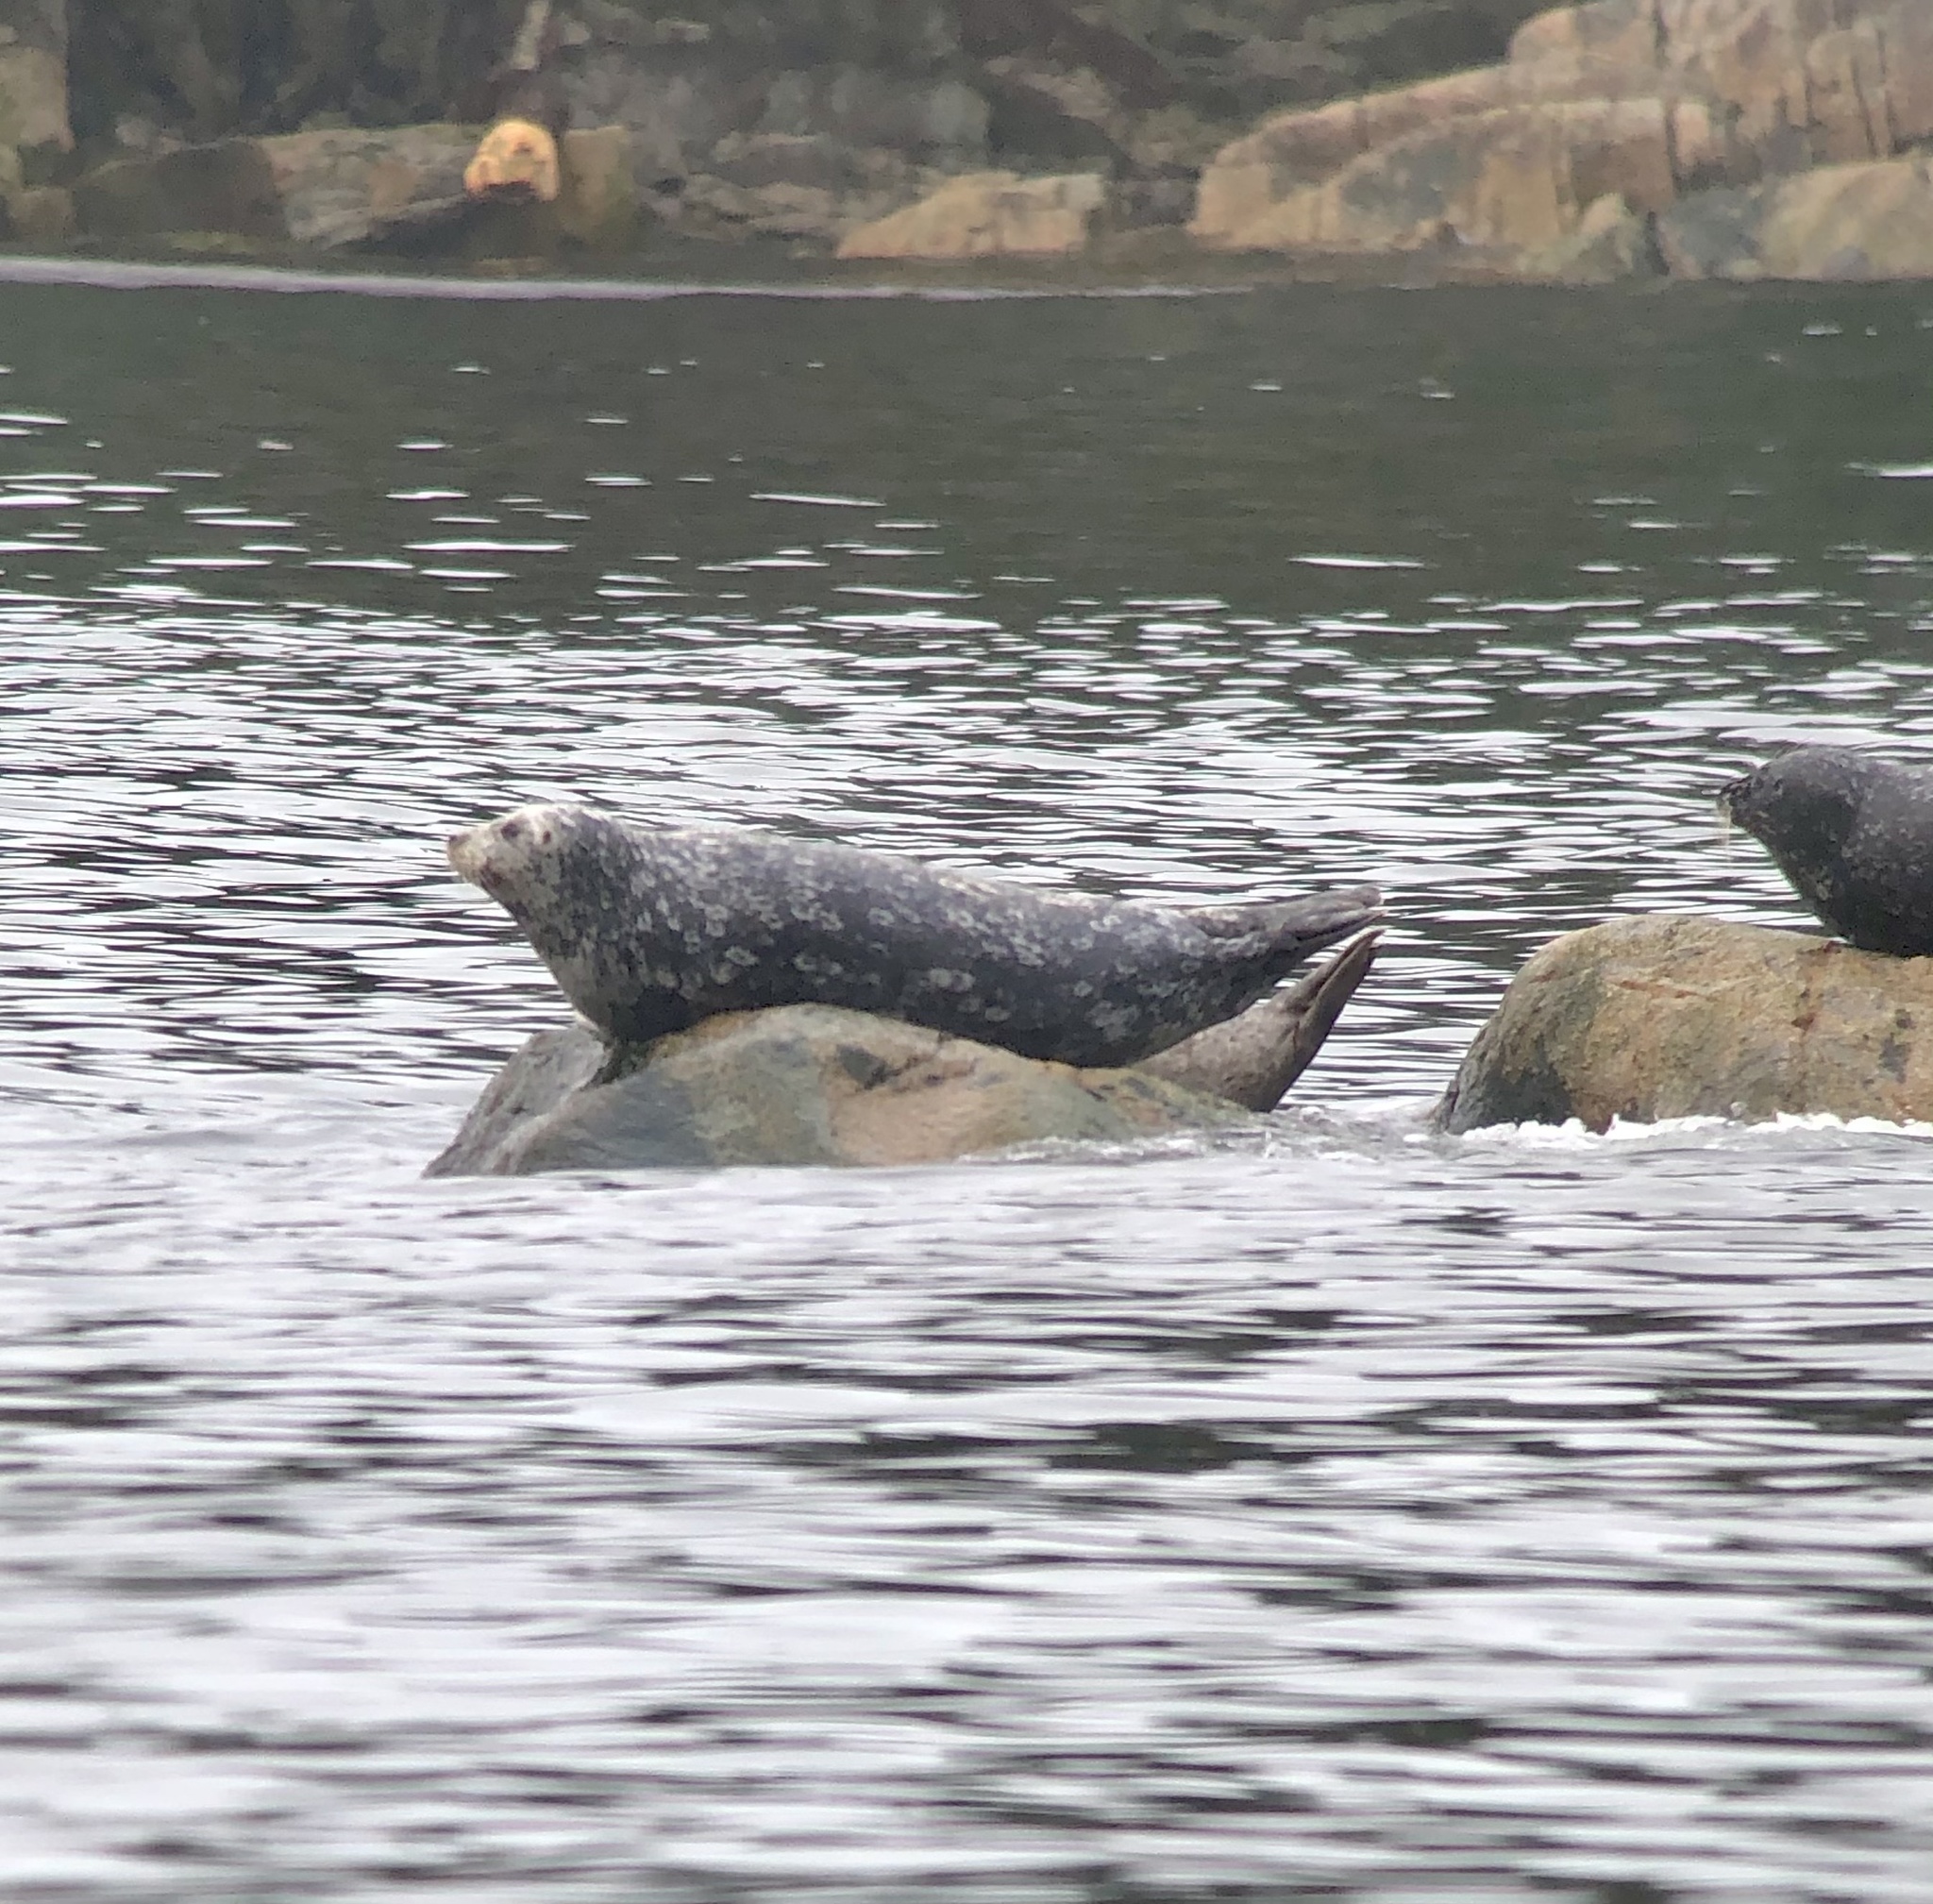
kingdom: Animalia
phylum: Chordata
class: Mammalia
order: Carnivora
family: Phocidae
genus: Phoca
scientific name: Phoca vitulina
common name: Harbor seal
